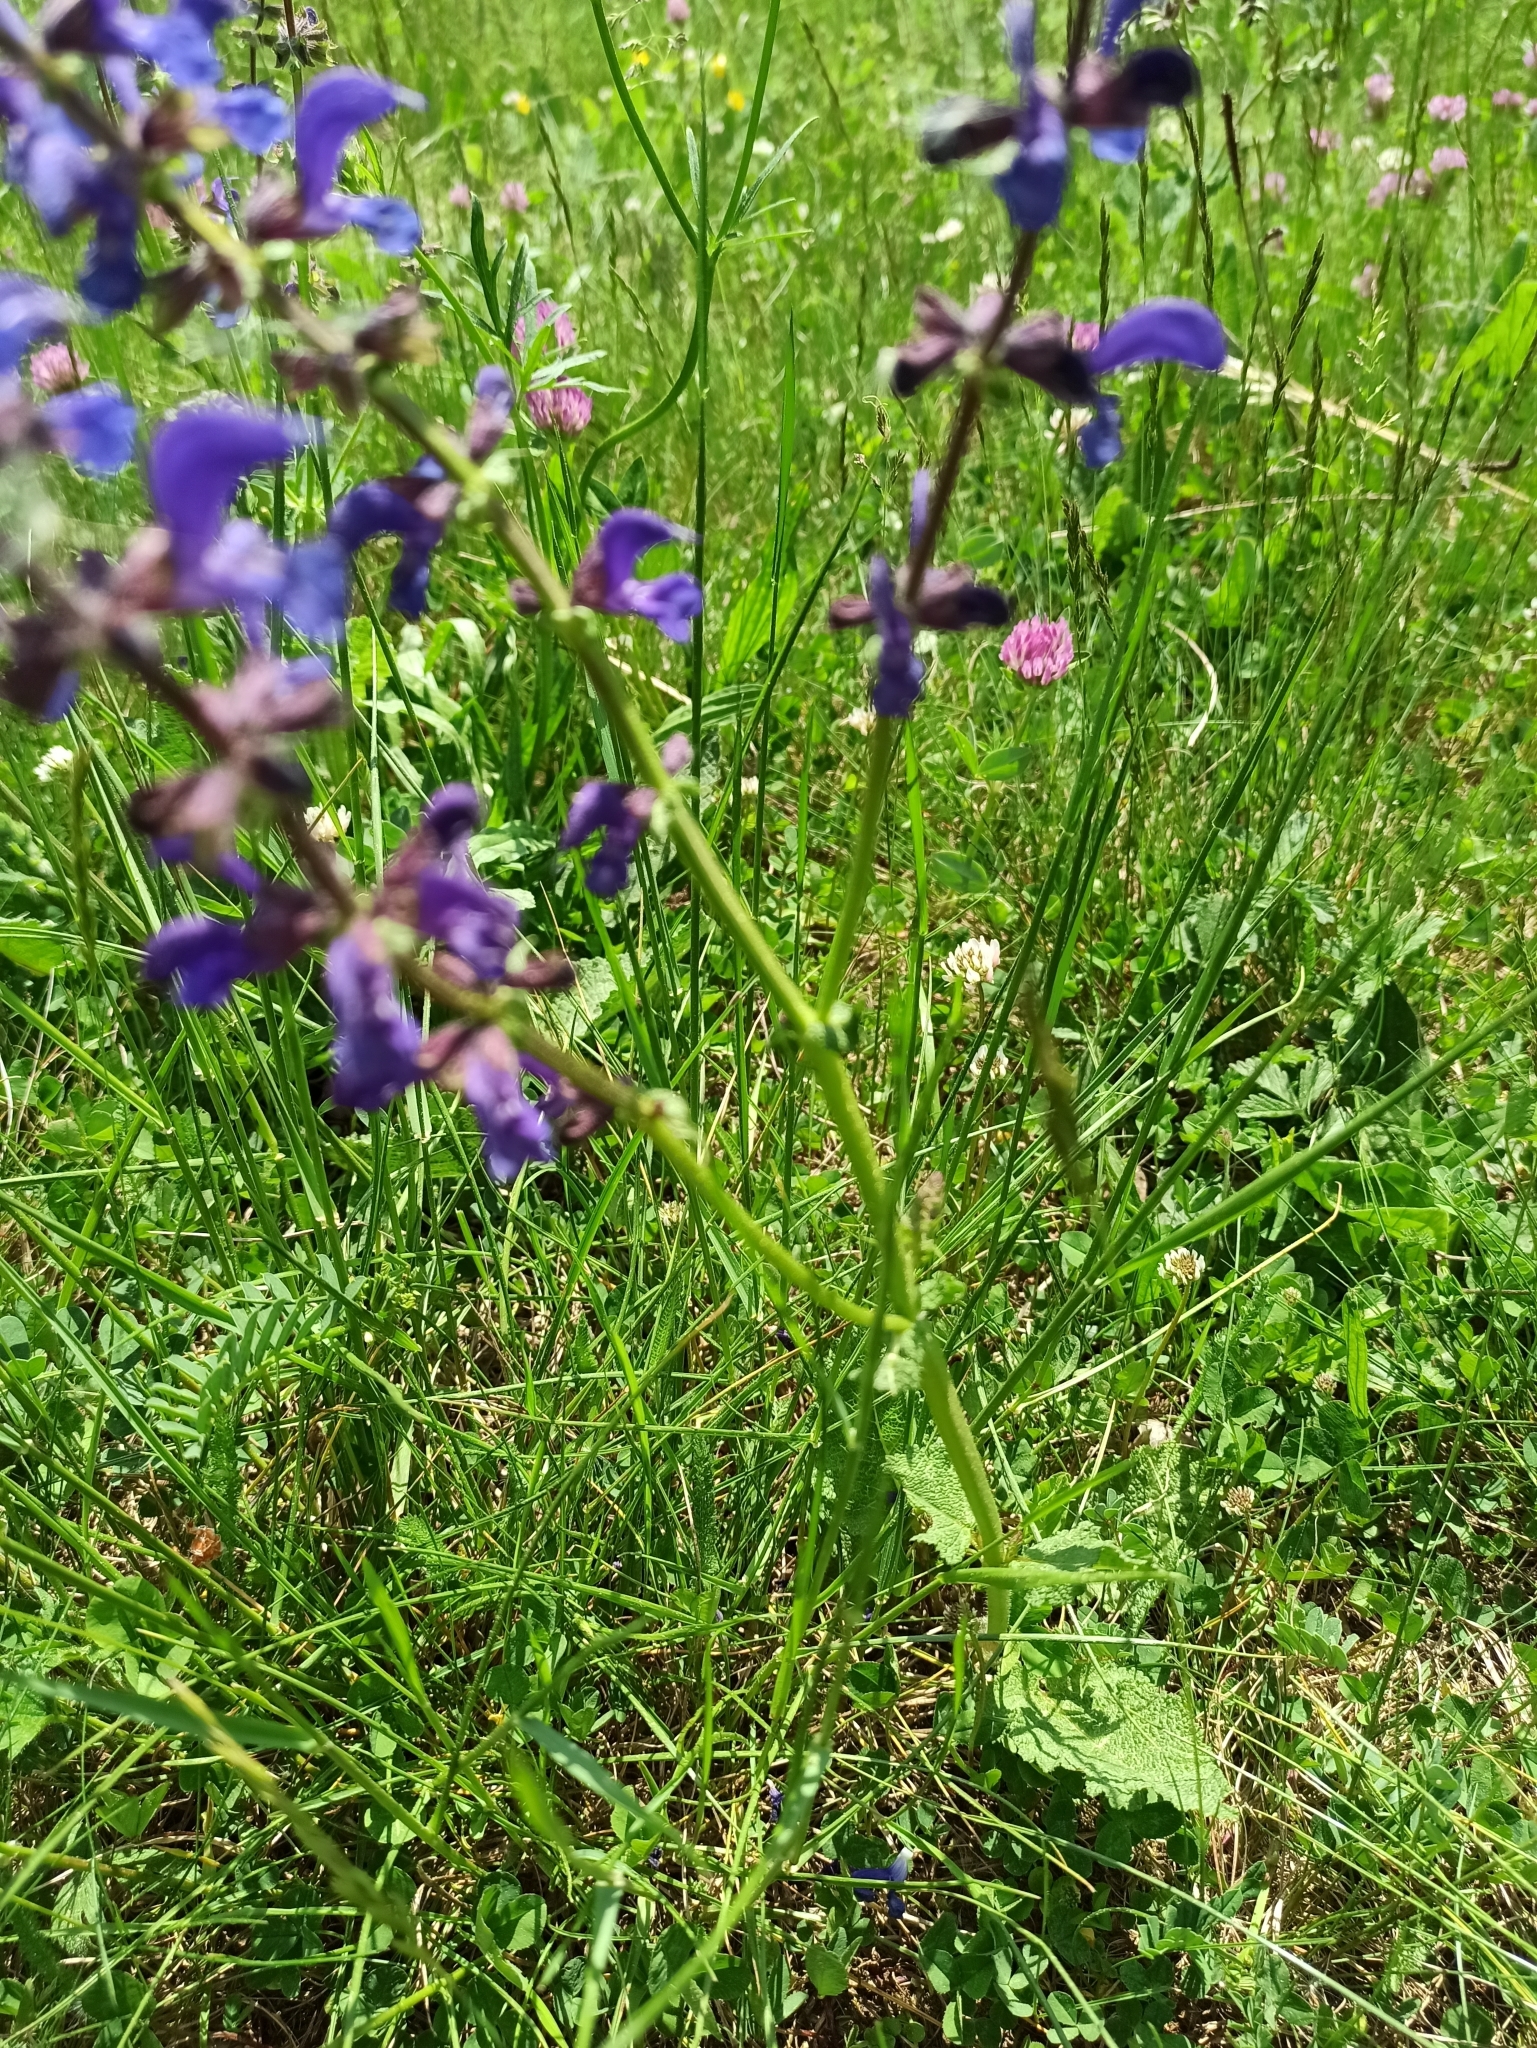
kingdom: Plantae
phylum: Tracheophyta
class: Magnoliopsida
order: Lamiales
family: Lamiaceae
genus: Salvia
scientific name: Salvia pratensis
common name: Meadow sage
